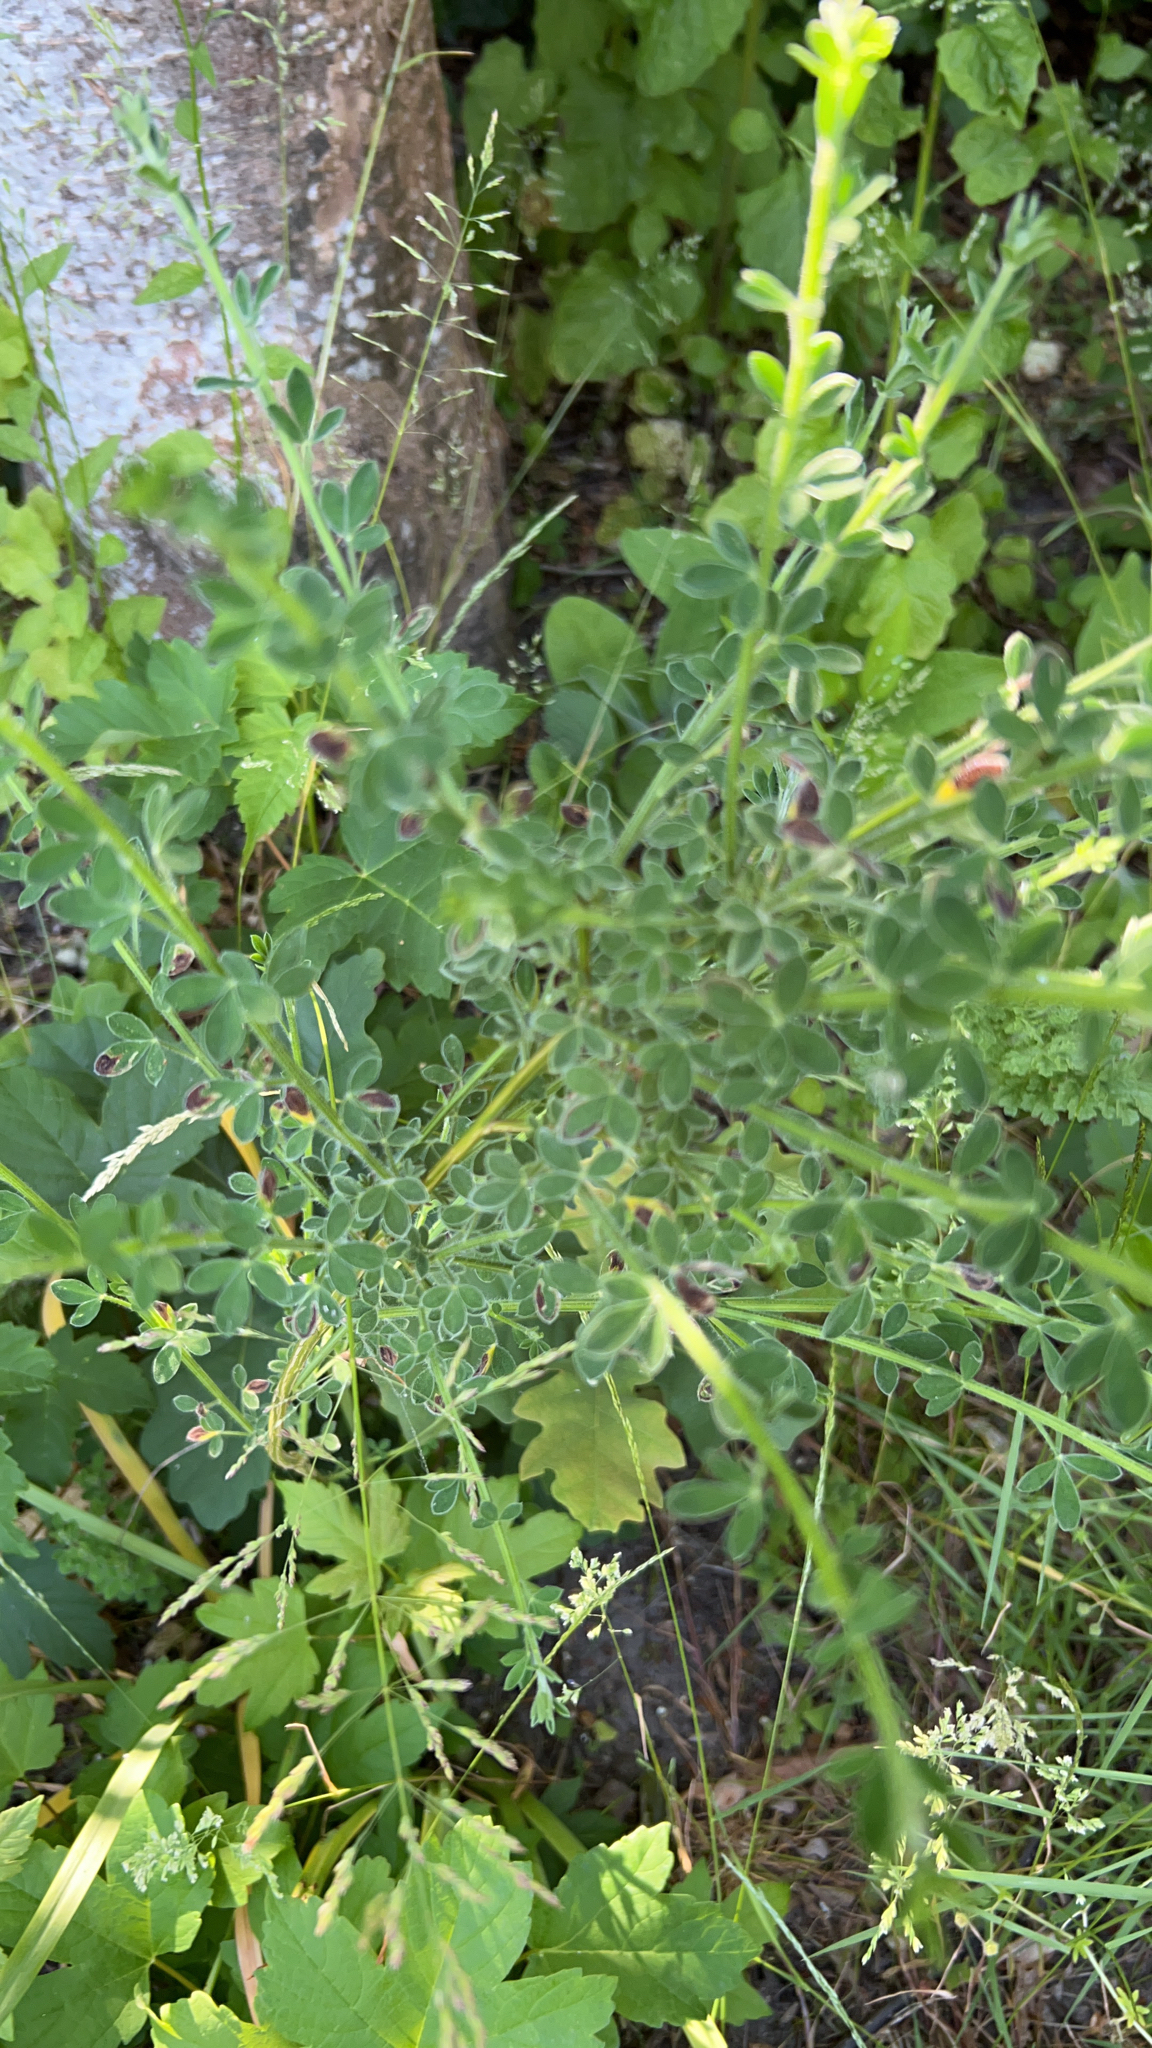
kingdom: Plantae
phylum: Tracheophyta
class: Magnoliopsida
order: Fabales
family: Fabaceae
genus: Cytisus
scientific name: Cytisus scoparius
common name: Scotch broom
